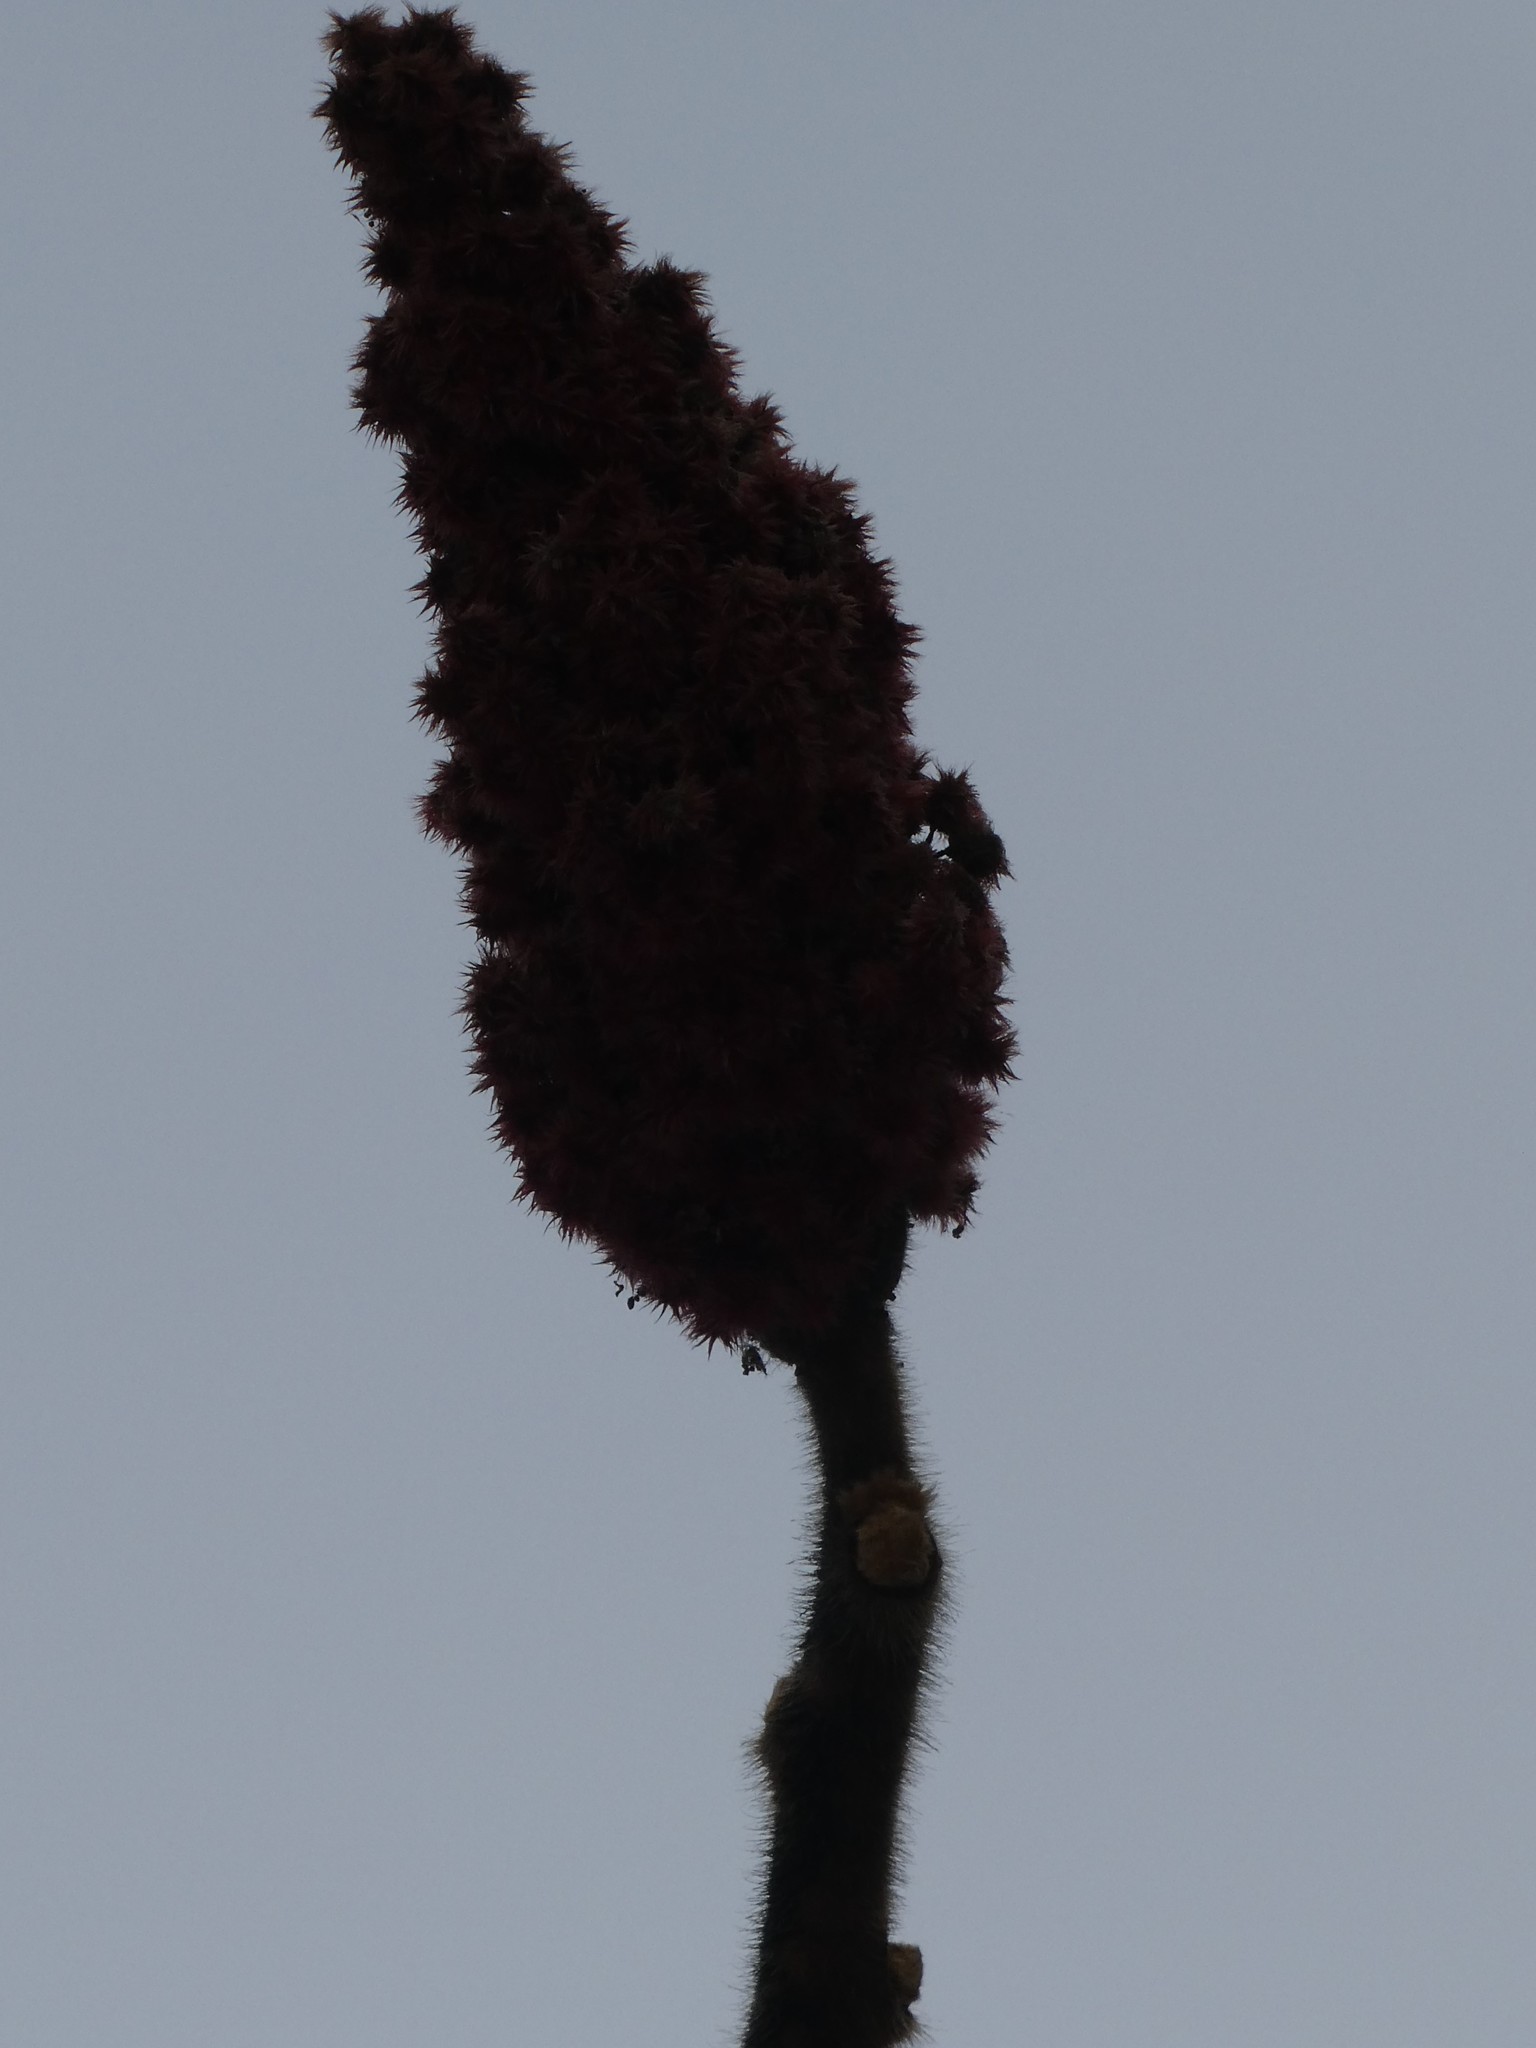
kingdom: Plantae
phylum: Tracheophyta
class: Magnoliopsida
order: Sapindales
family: Anacardiaceae
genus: Rhus
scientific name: Rhus typhina
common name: Staghorn sumac
